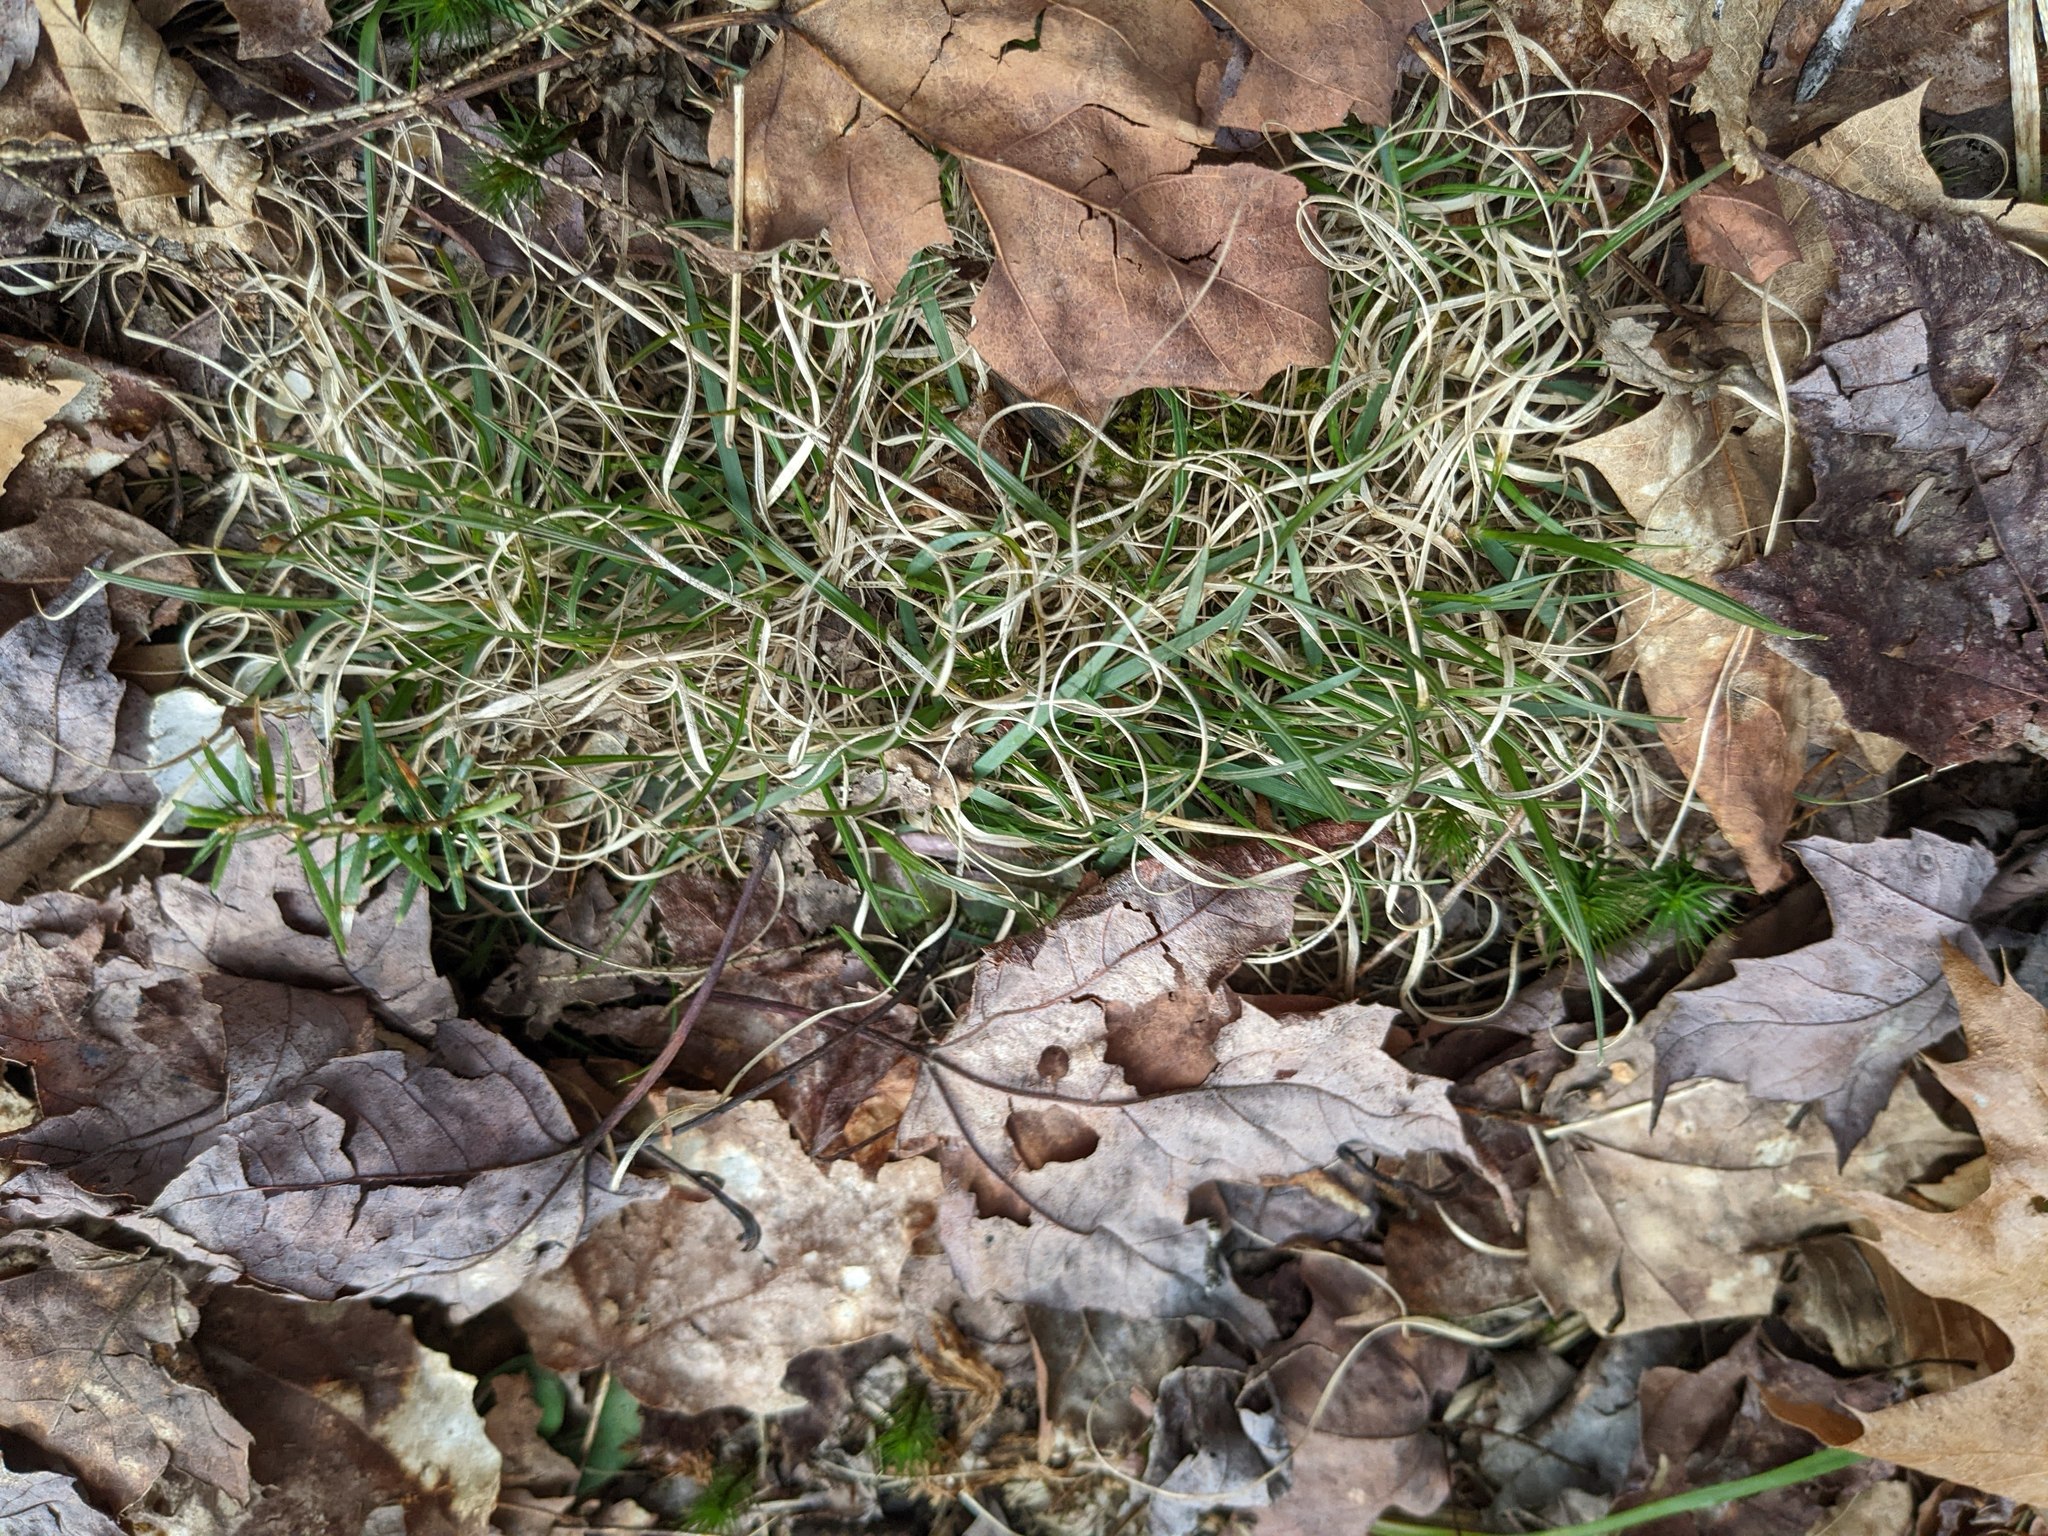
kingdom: Plantae
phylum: Tracheophyta
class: Liliopsida
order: Poales
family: Poaceae
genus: Danthonia
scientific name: Danthonia spicata
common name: Common wild oatgrass
